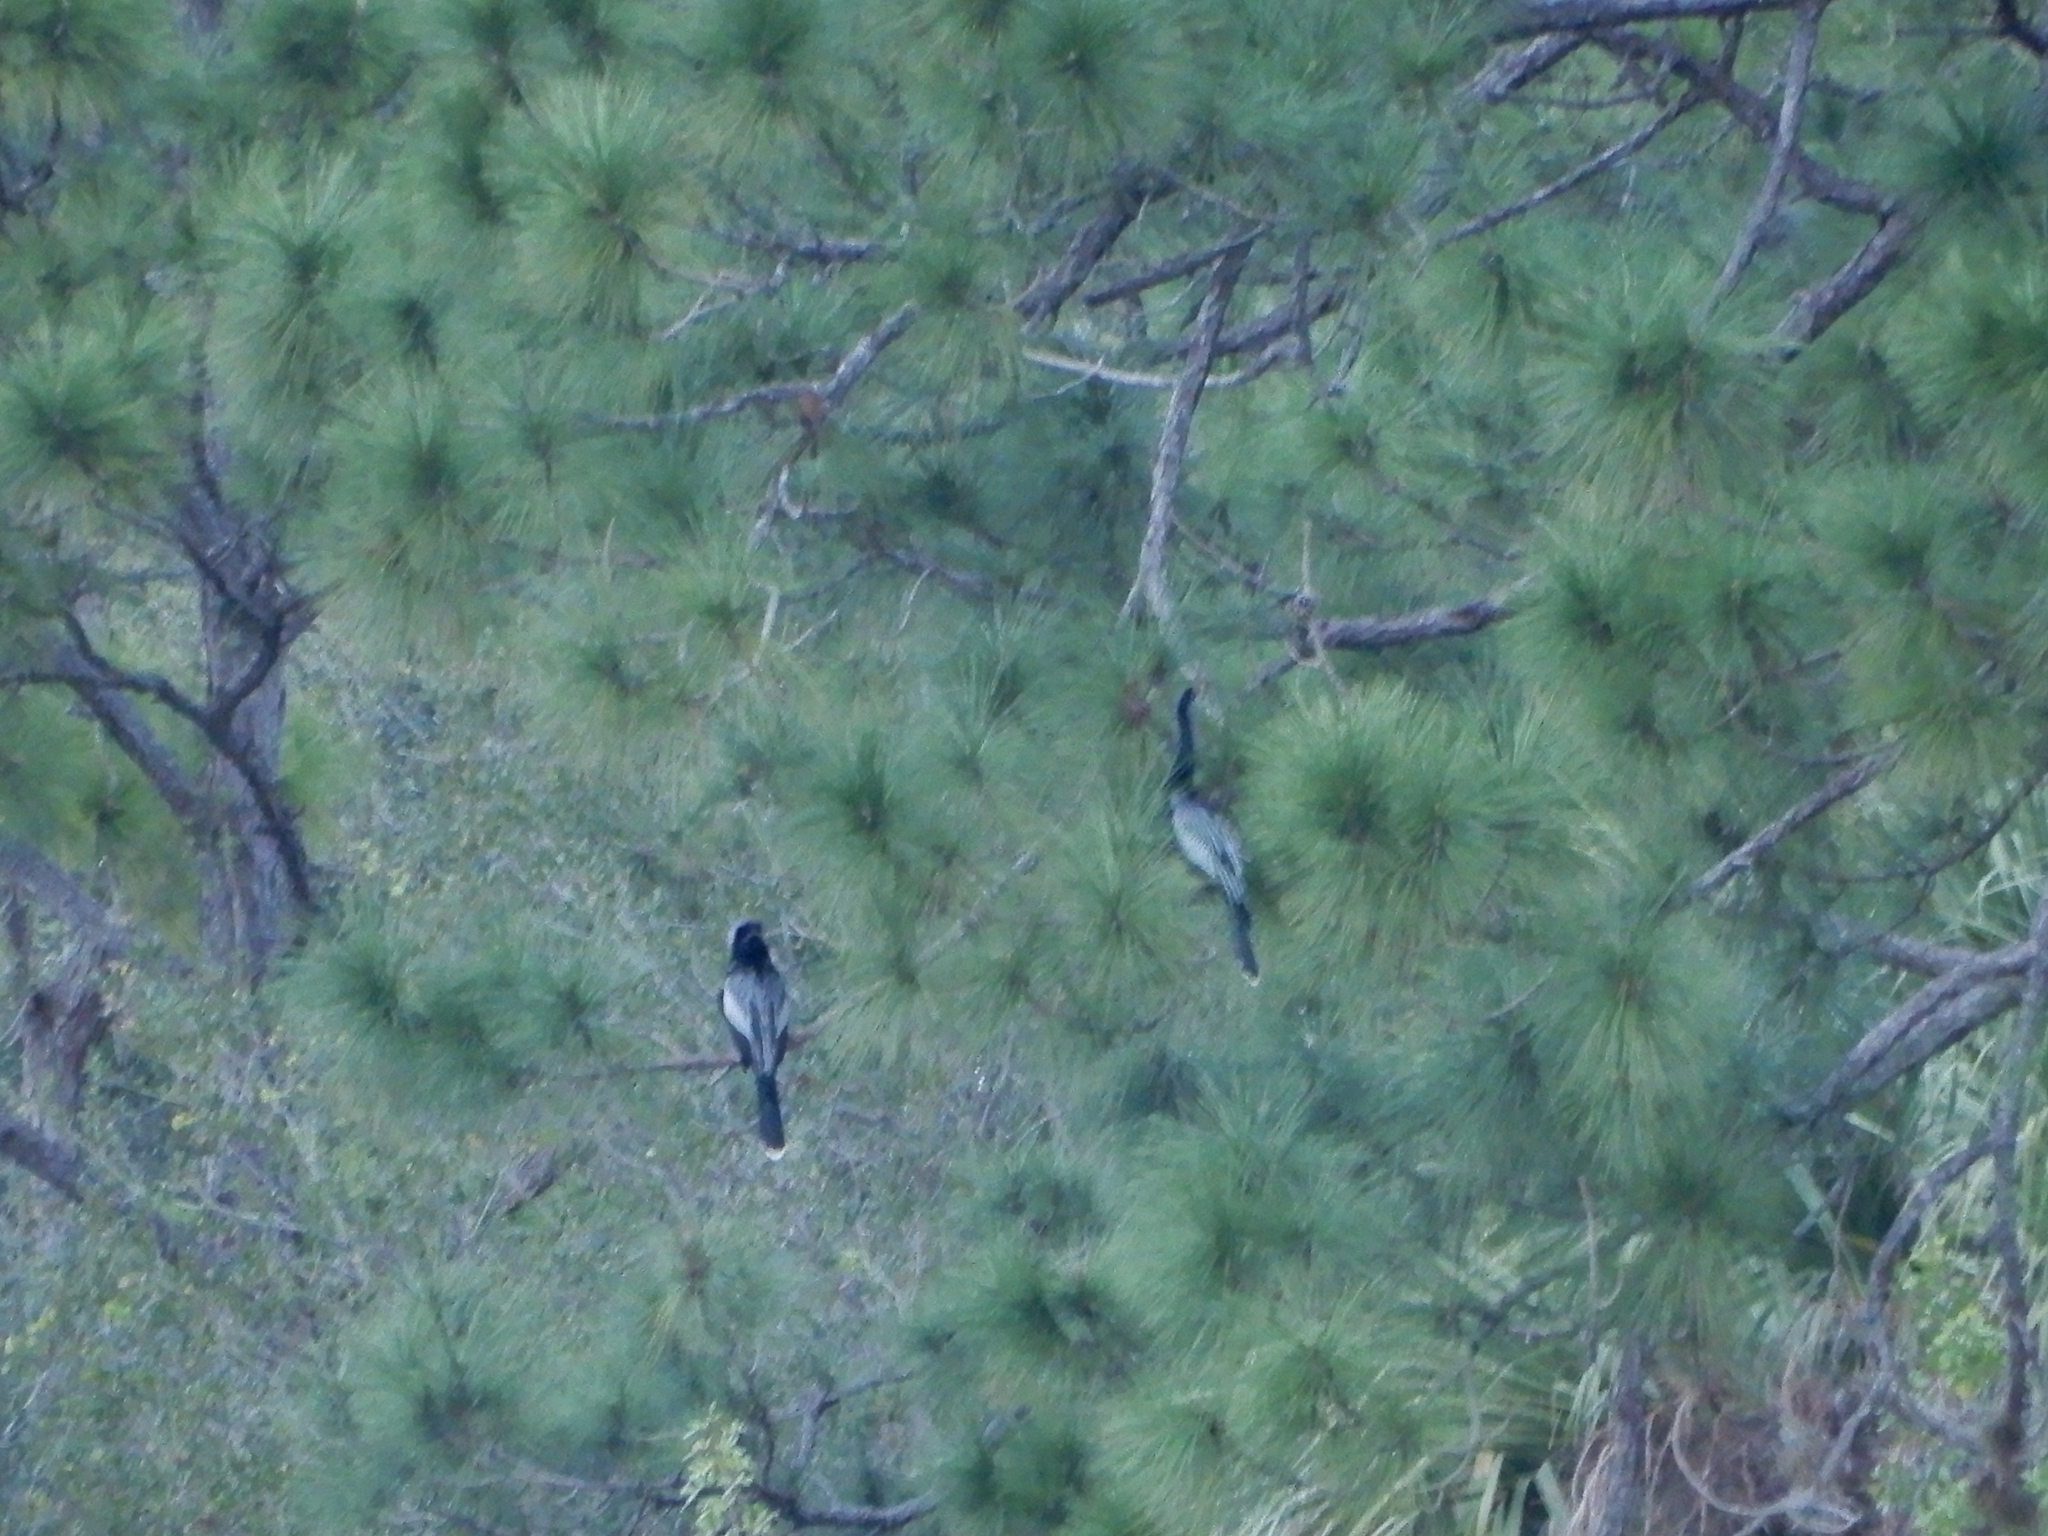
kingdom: Animalia
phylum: Chordata
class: Aves
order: Suliformes
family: Anhingidae
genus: Anhinga
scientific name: Anhinga anhinga
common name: Anhinga
